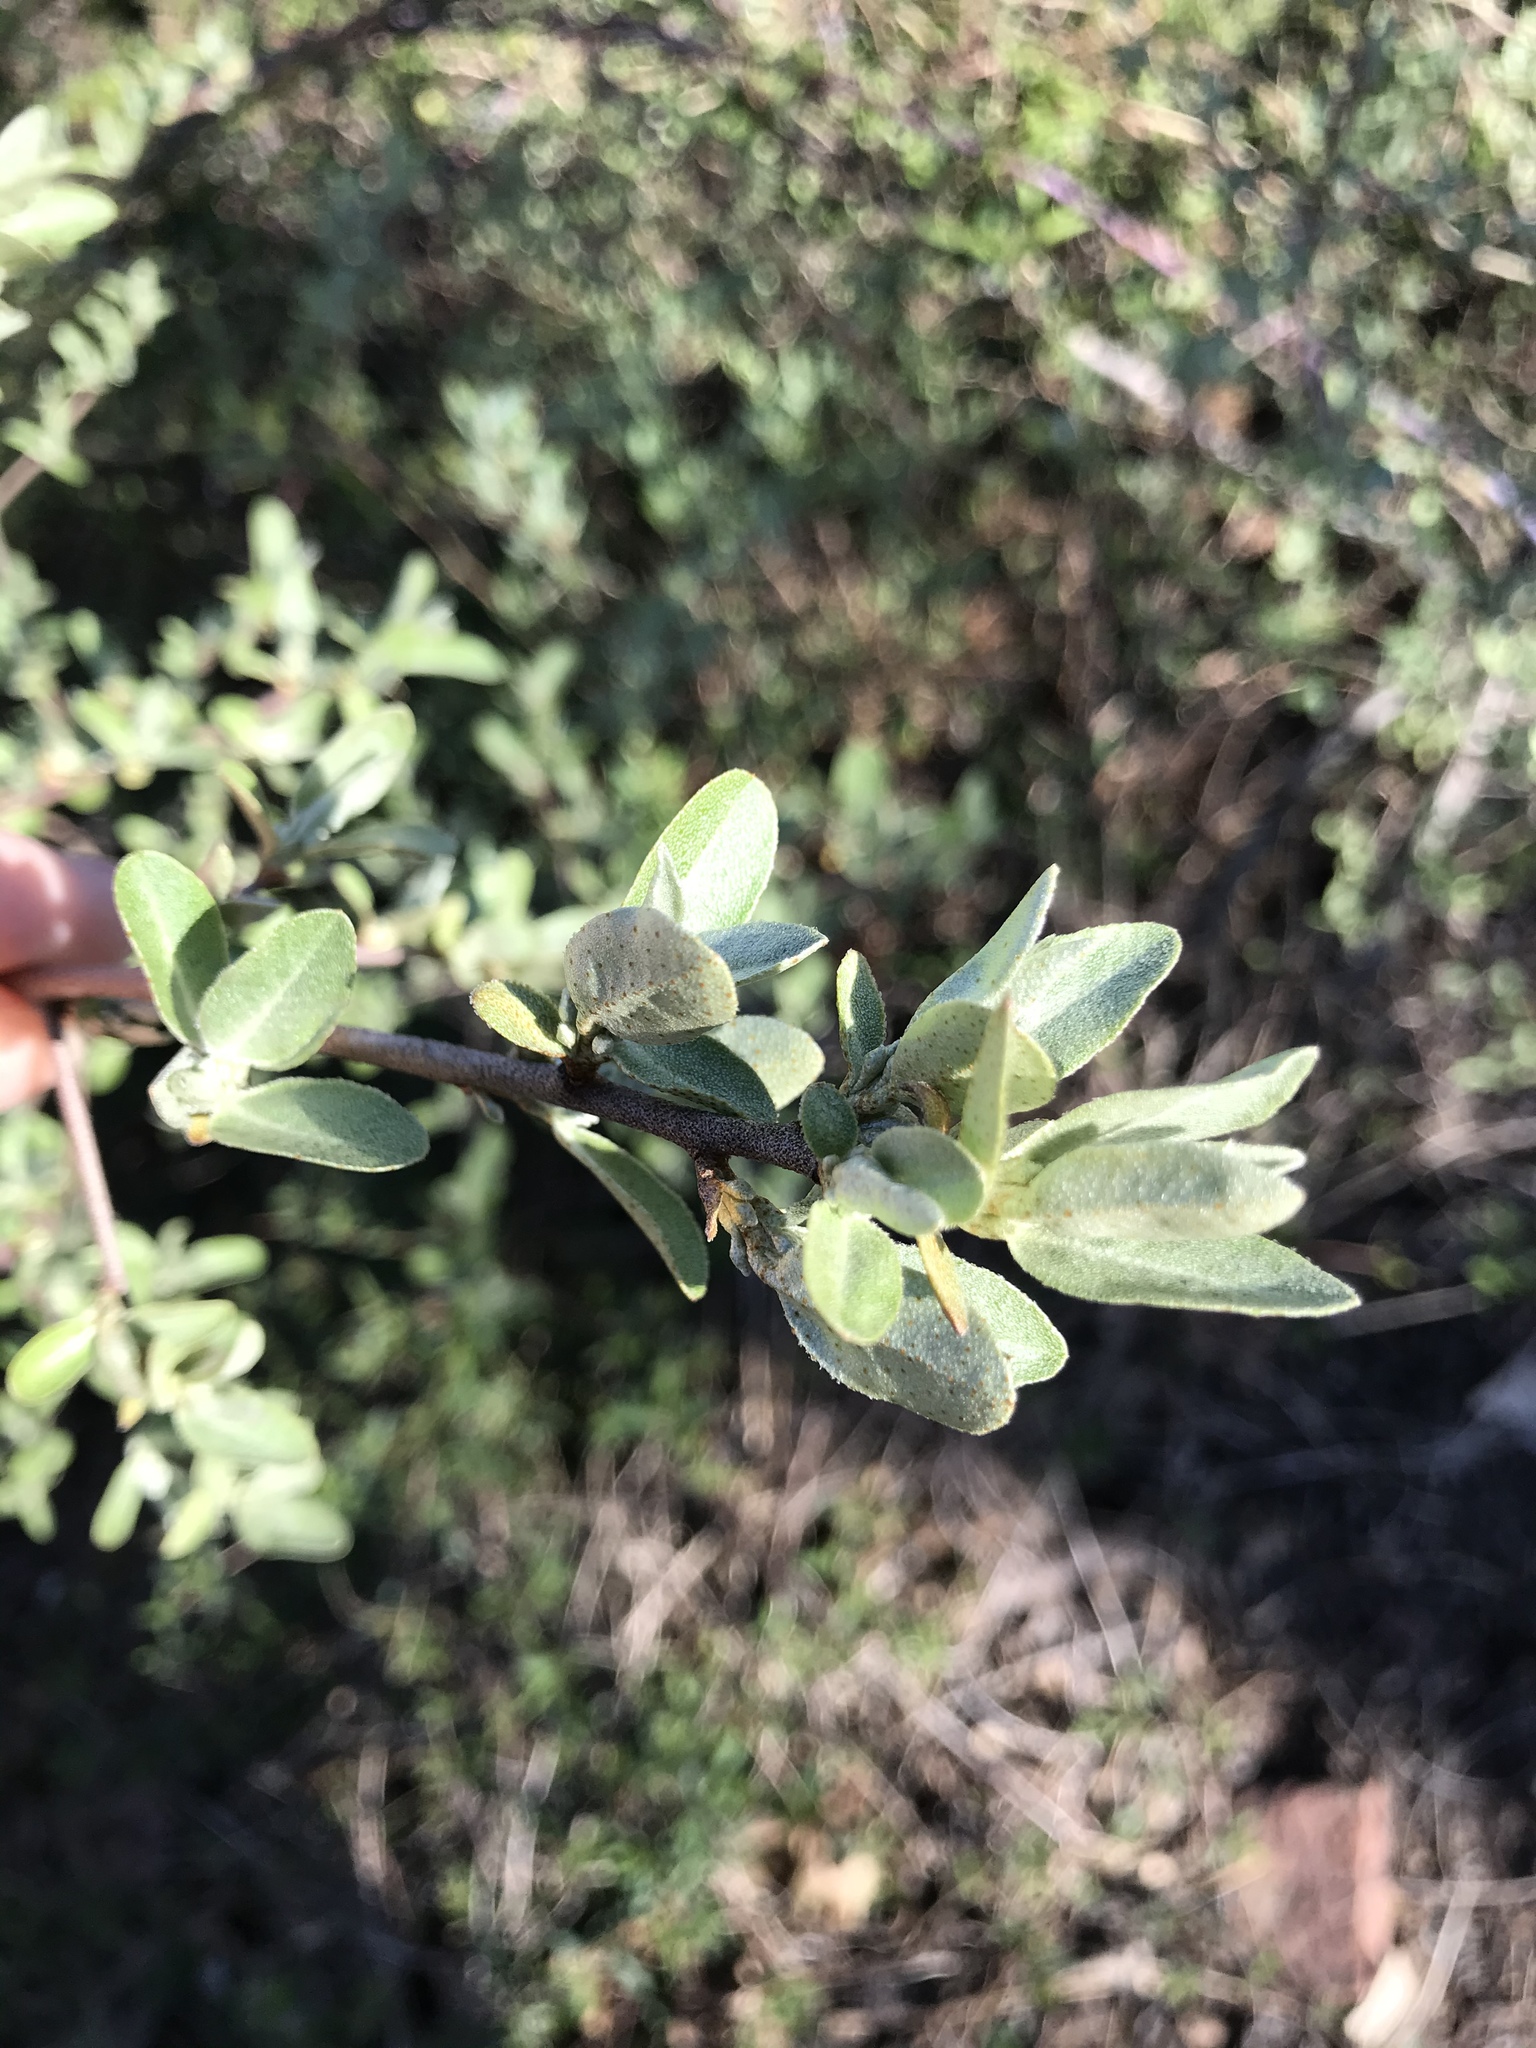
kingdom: Plantae
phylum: Tracheophyta
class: Magnoliopsida
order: Rosales
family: Elaeagnaceae
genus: Elaeagnus
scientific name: Elaeagnus umbellata
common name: Autumn olive
